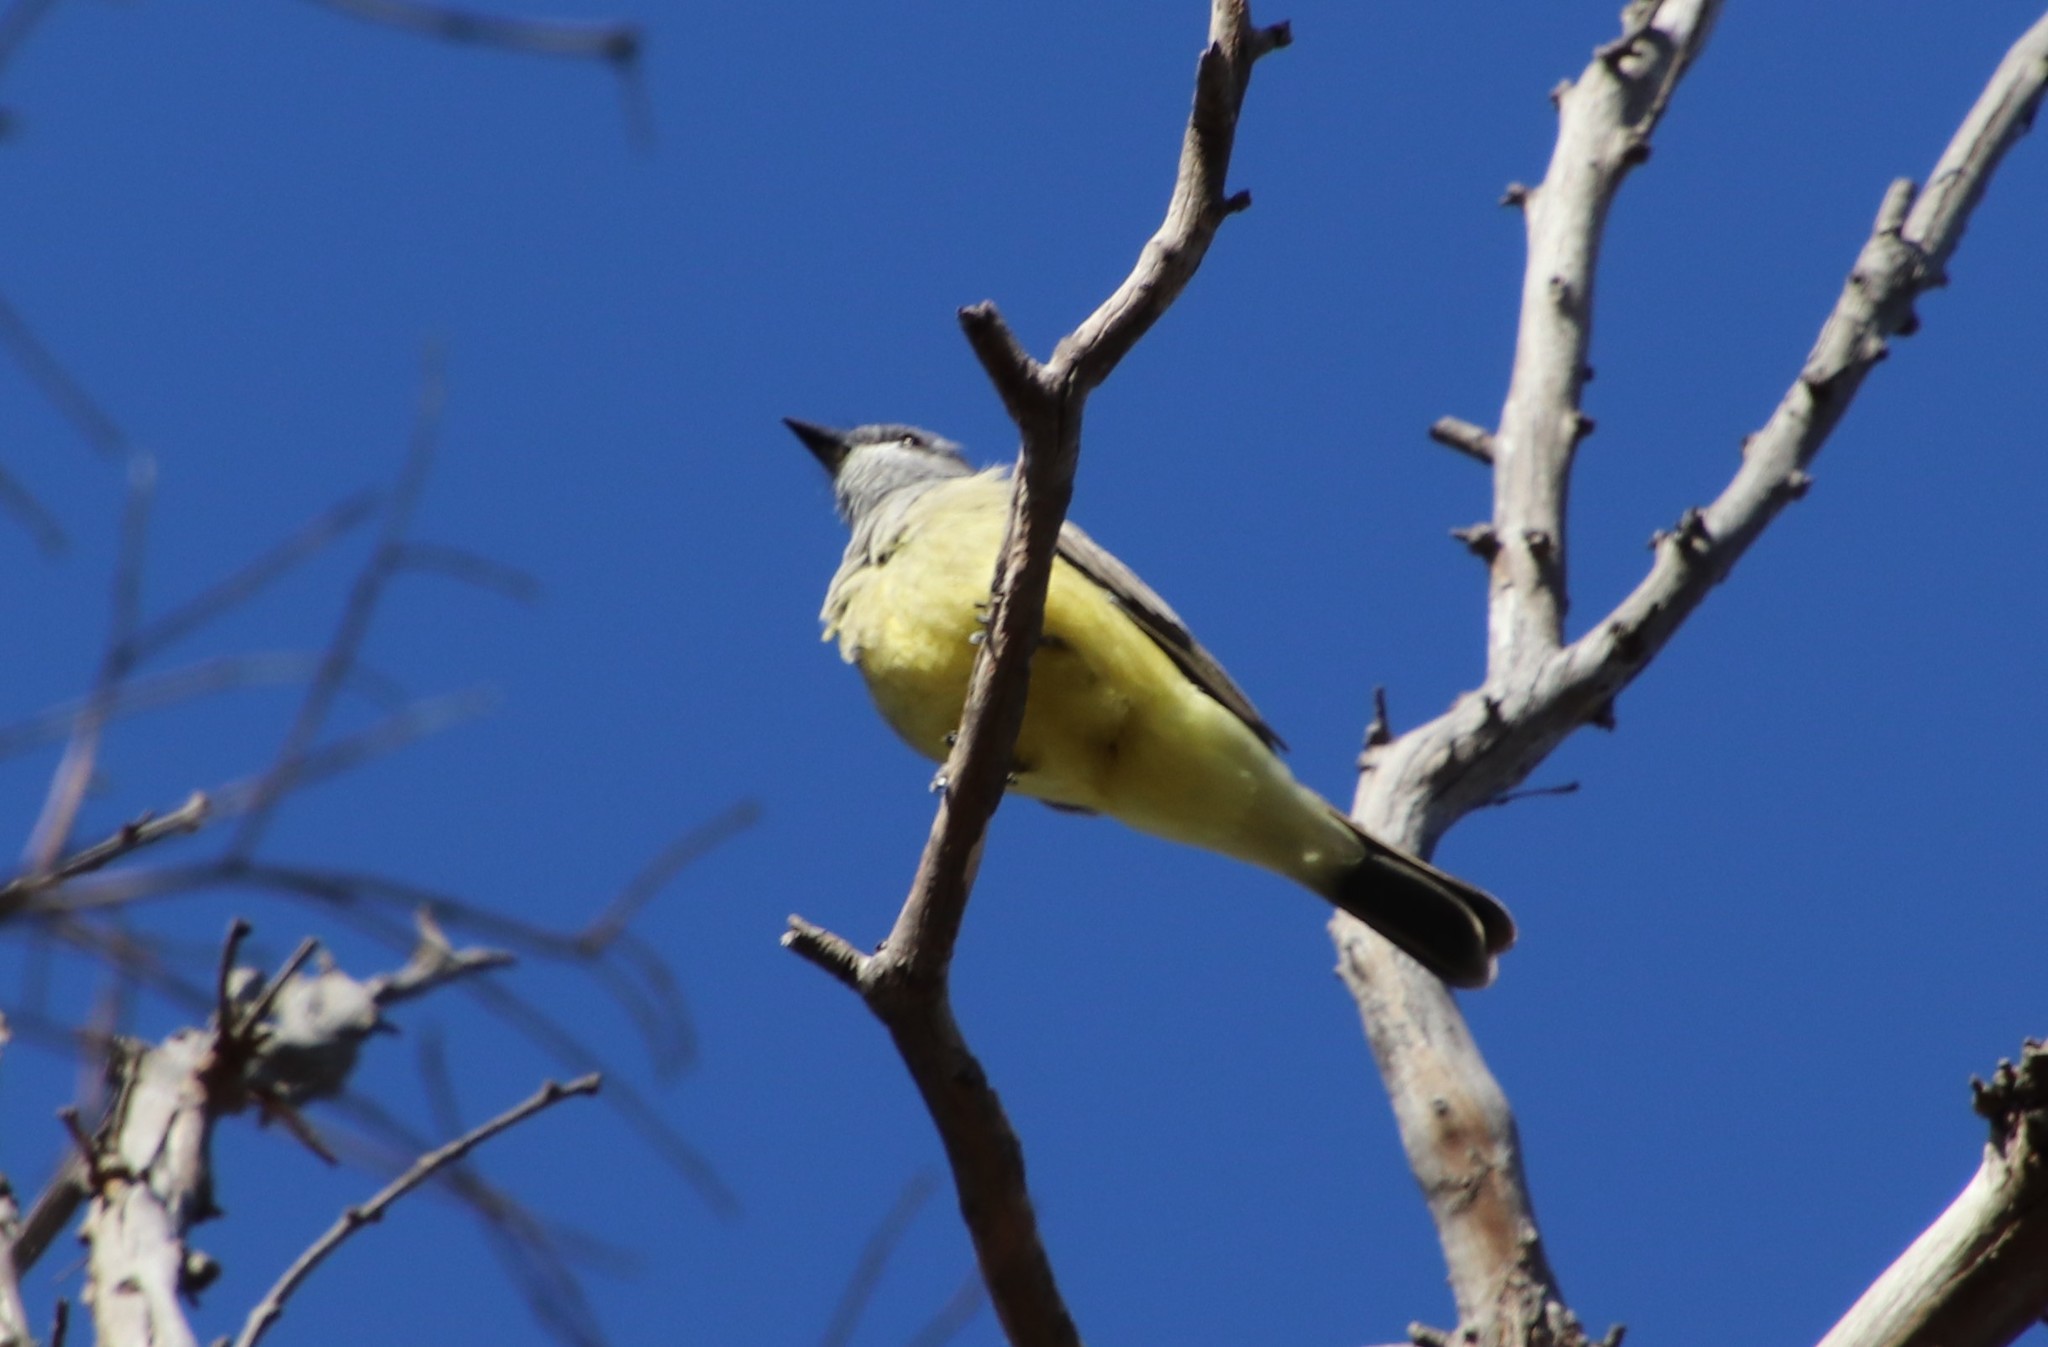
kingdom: Animalia
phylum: Chordata
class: Aves
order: Passeriformes
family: Tyrannidae
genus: Tyrannus
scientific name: Tyrannus vociferans
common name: Cassin's kingbird
